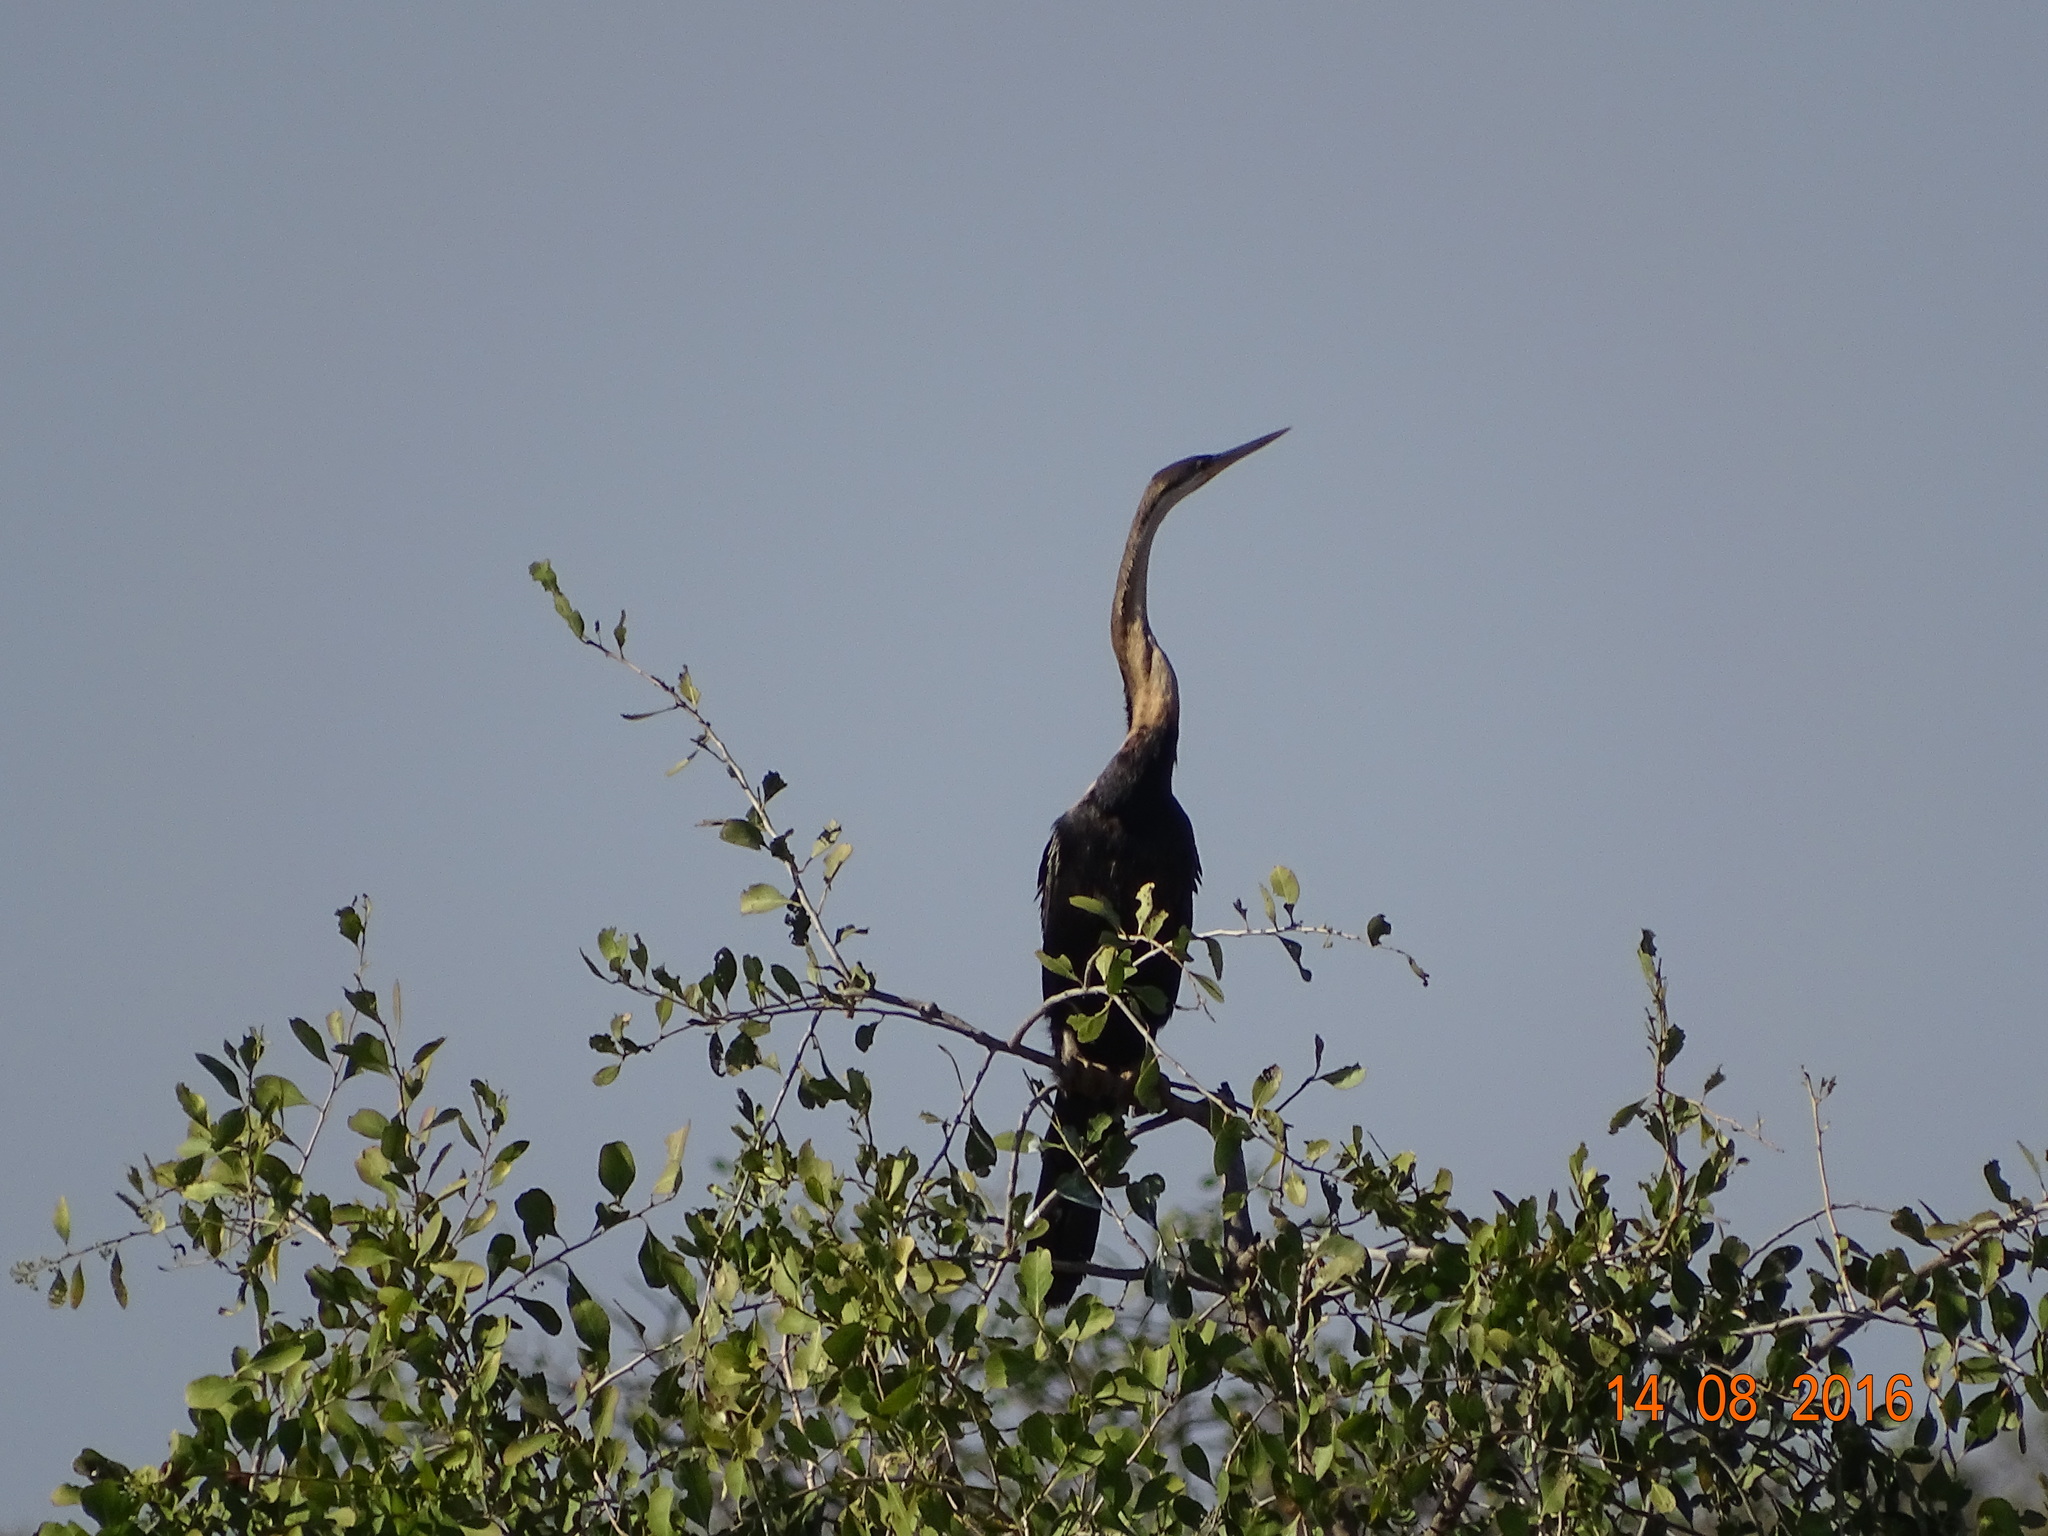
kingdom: Animalia
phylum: Chordata
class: Aves
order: Suliformes
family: Anhingidae
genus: Anhinga
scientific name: Anhinga rufa
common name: African darter
